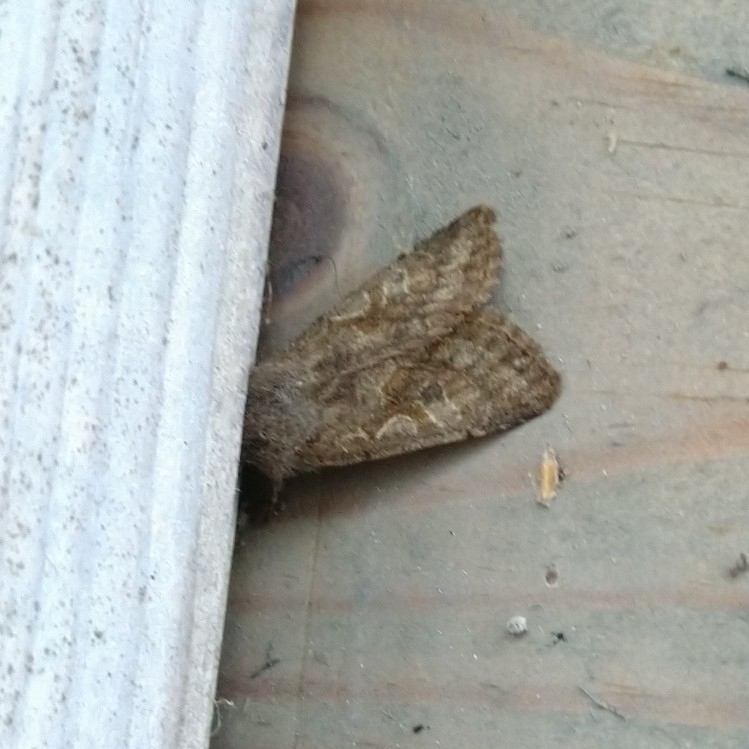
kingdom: Animalia
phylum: Arthropoda
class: Insecta
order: Lepidoptera
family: Noctuidae
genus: Orthosia
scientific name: Orthosia gothica
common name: Hebrew character
